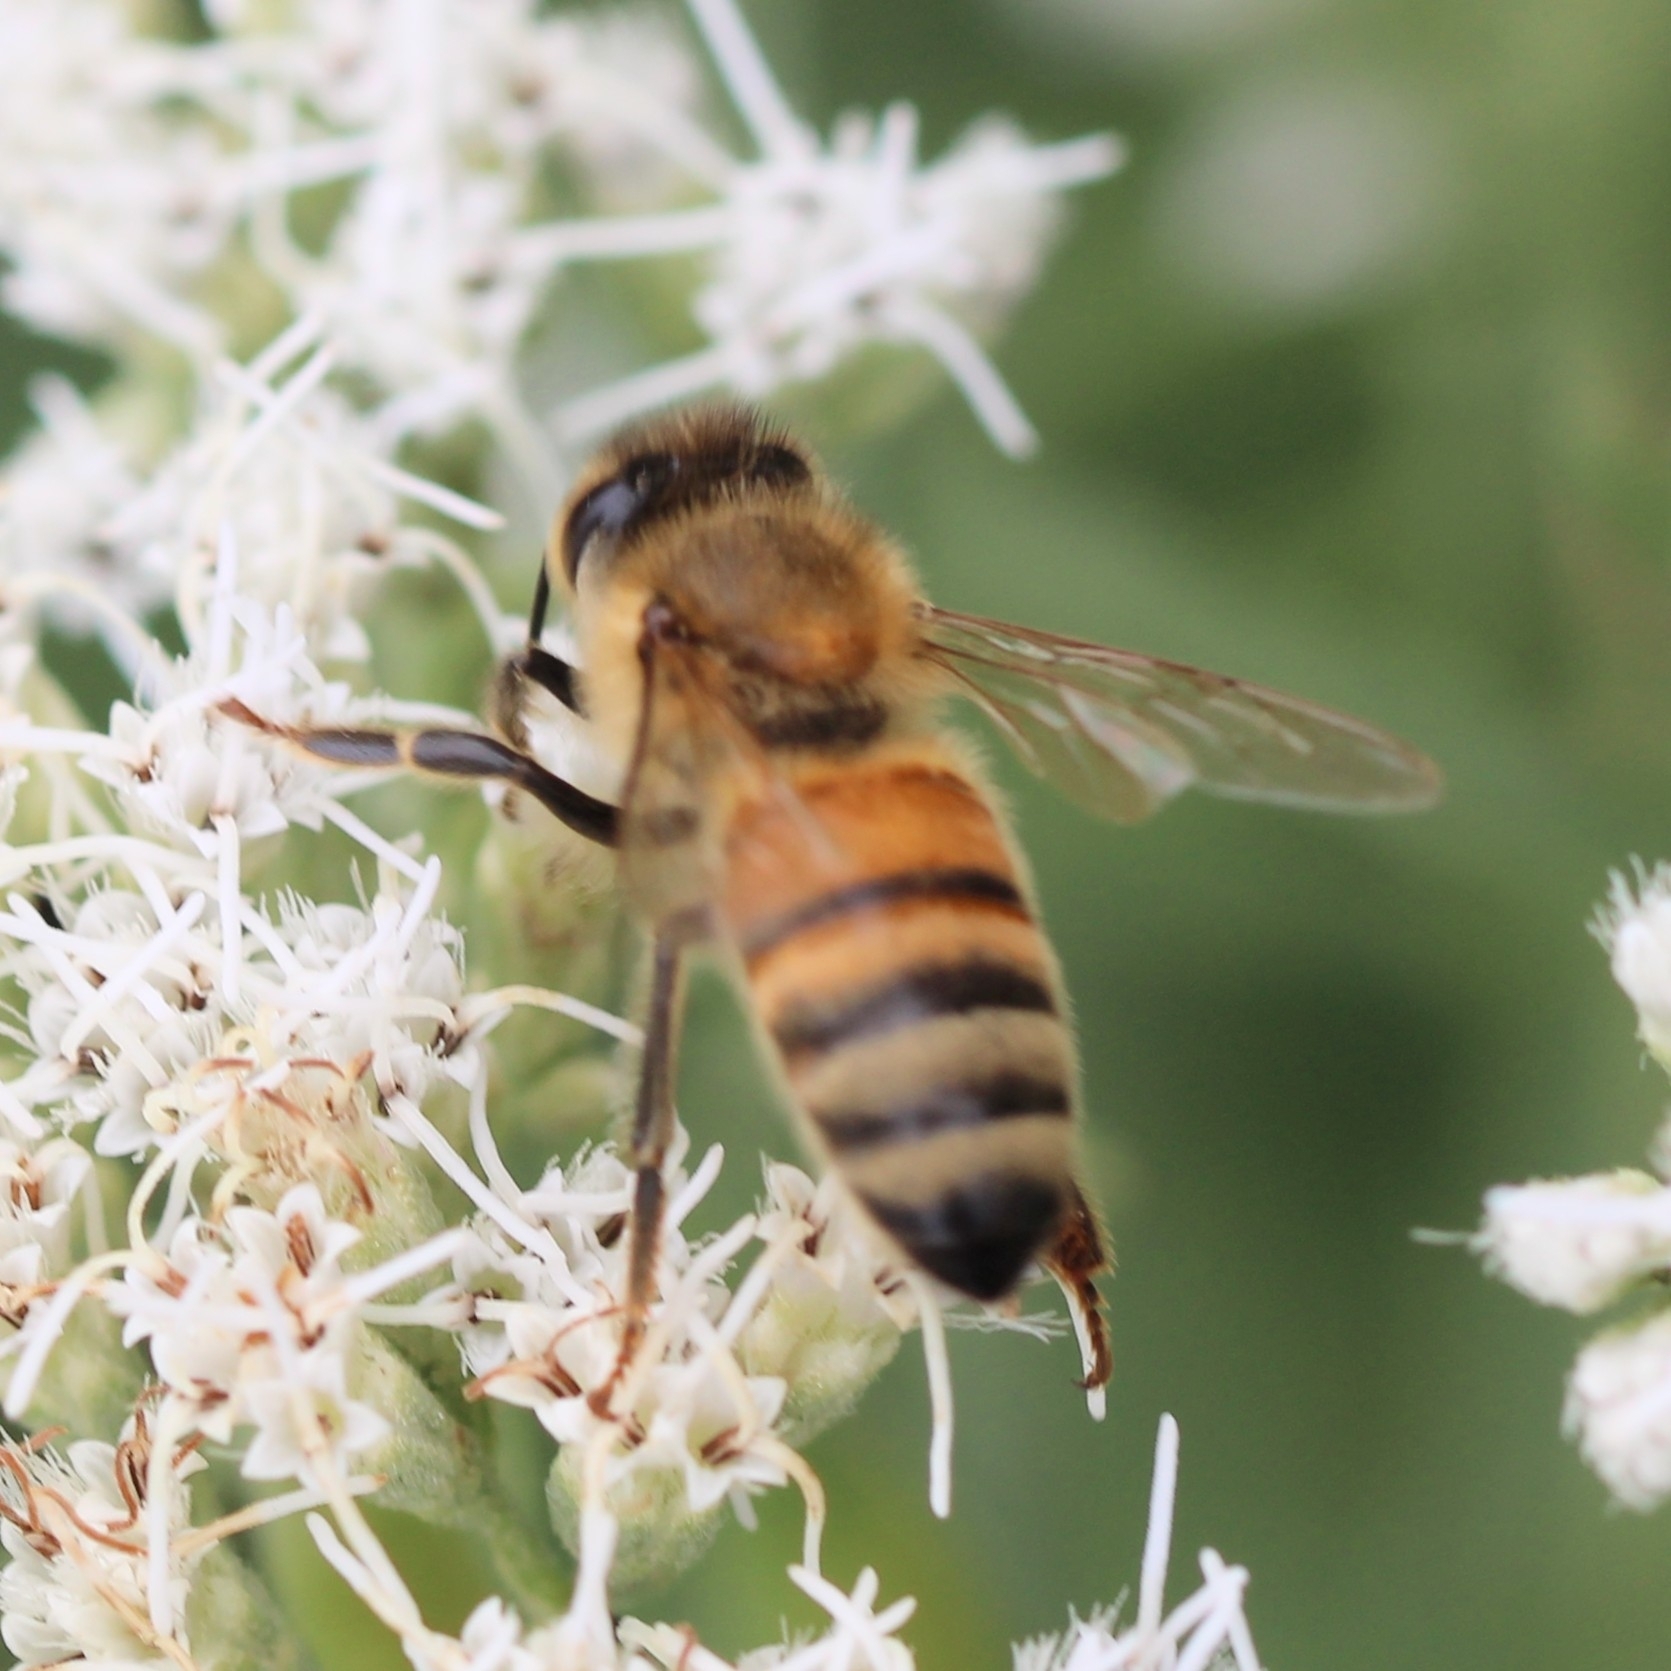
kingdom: Animalia
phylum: Arthropoda
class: Insecta
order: Hymenoptera
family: Apidae
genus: Apis
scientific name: Apis mellifera
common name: Honey bee
